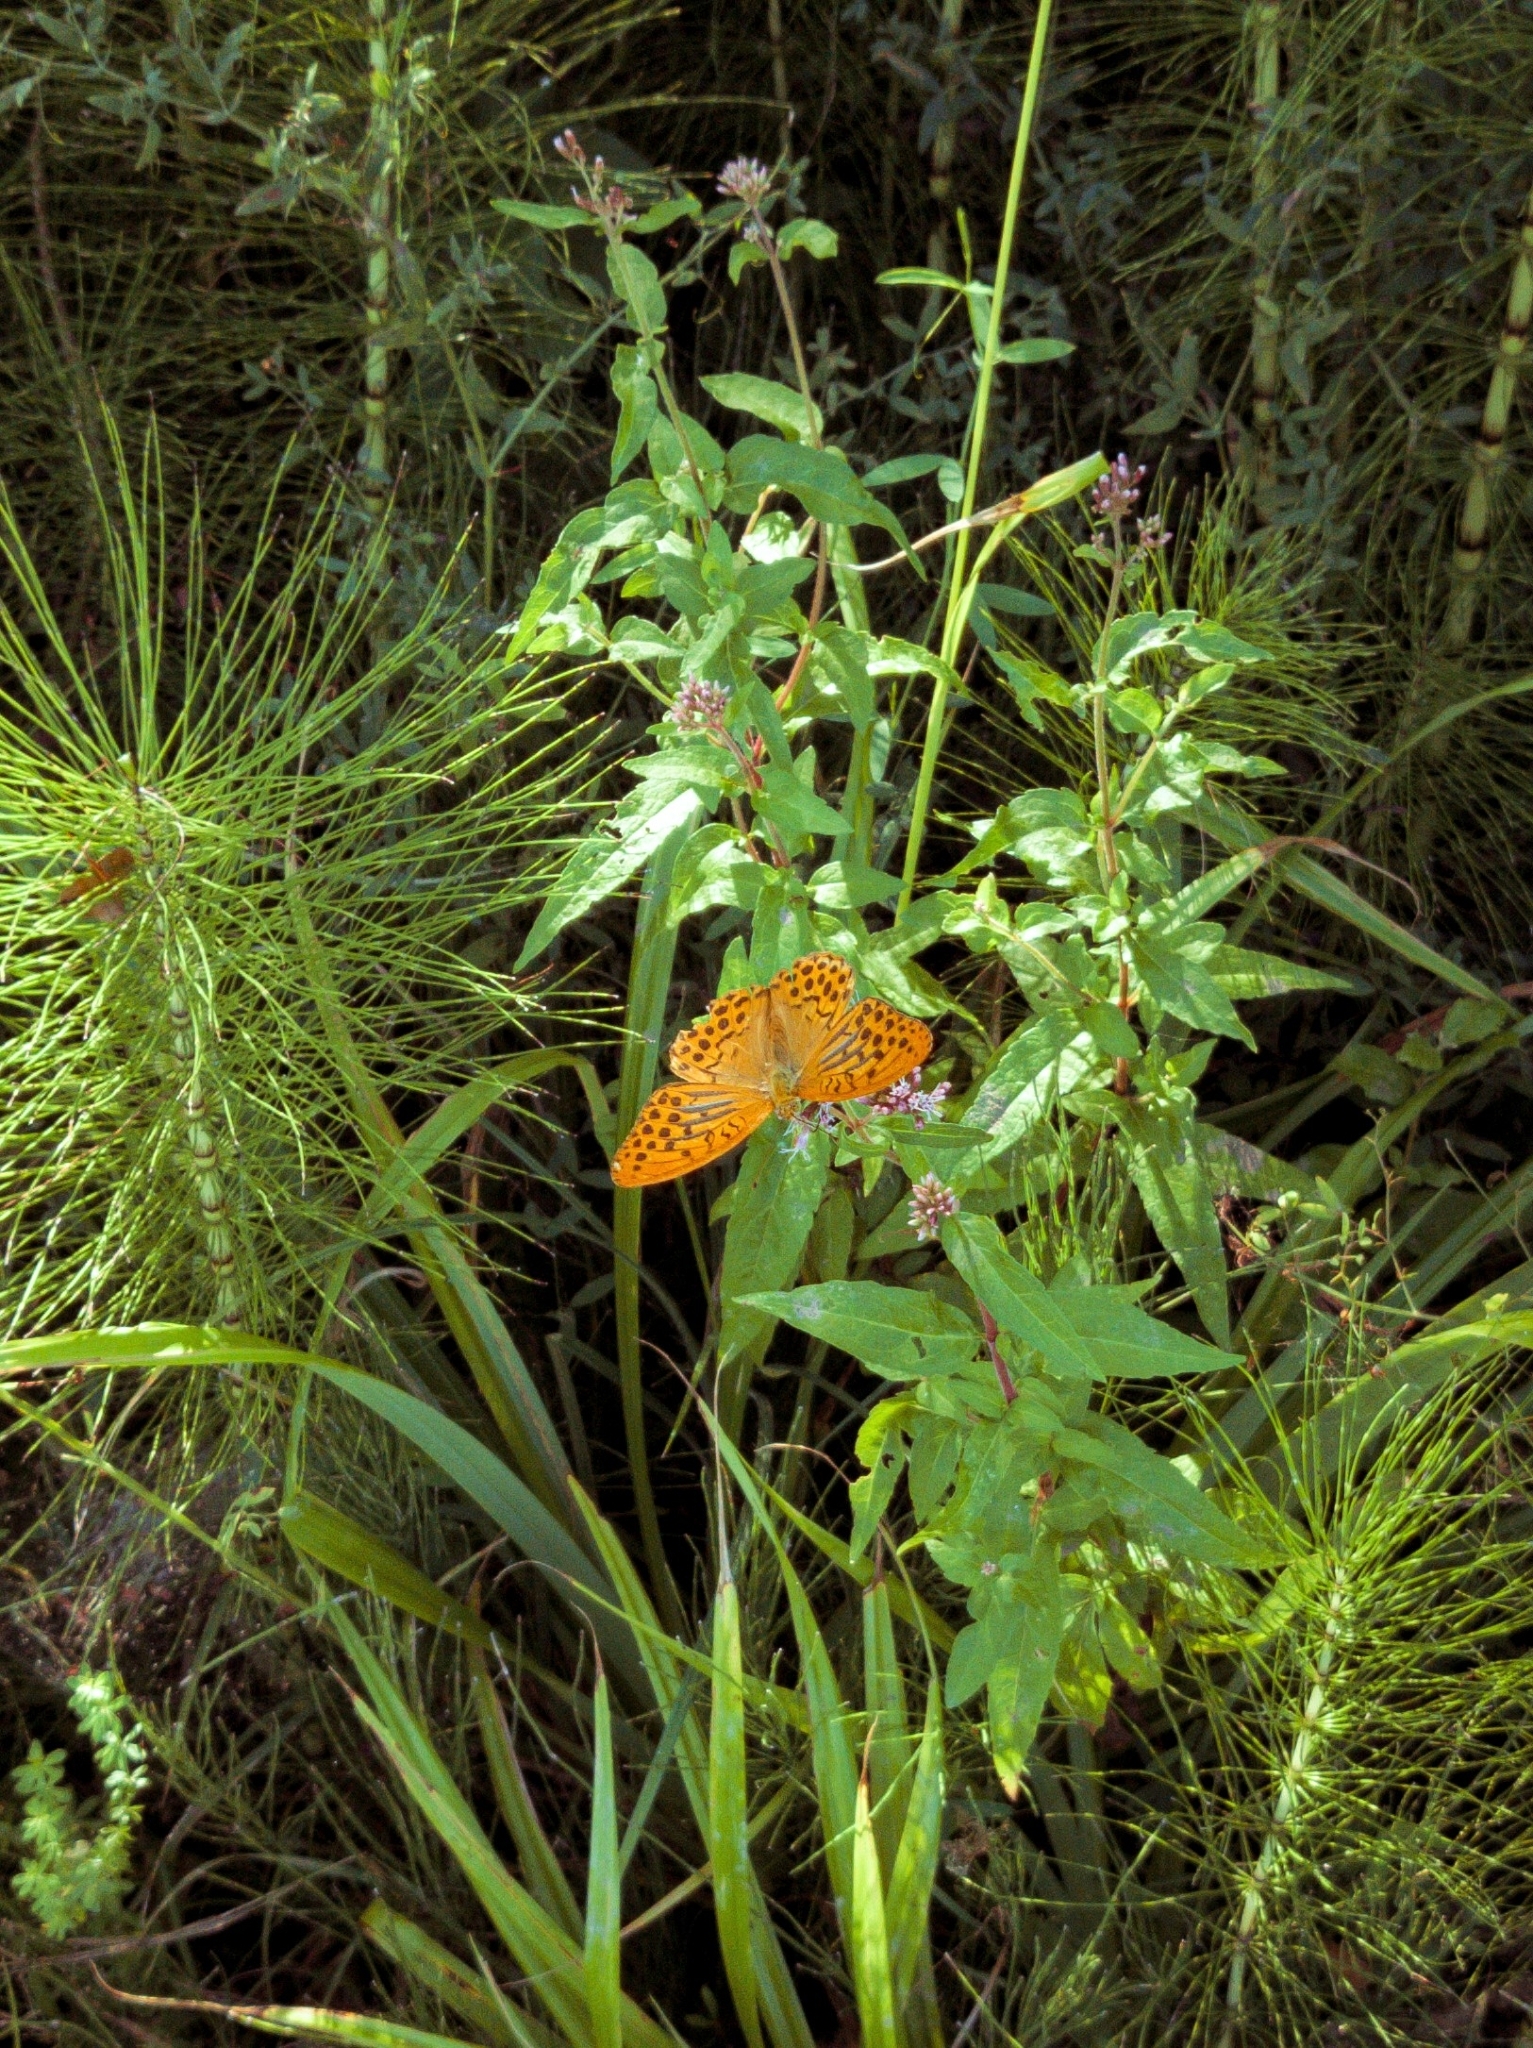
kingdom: Animalia
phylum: Arthropoda
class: Insecta
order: Lepidoptera
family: Nymphalidae
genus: Argynnis
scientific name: Argynnis paphia
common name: Silver-washed fritillary
